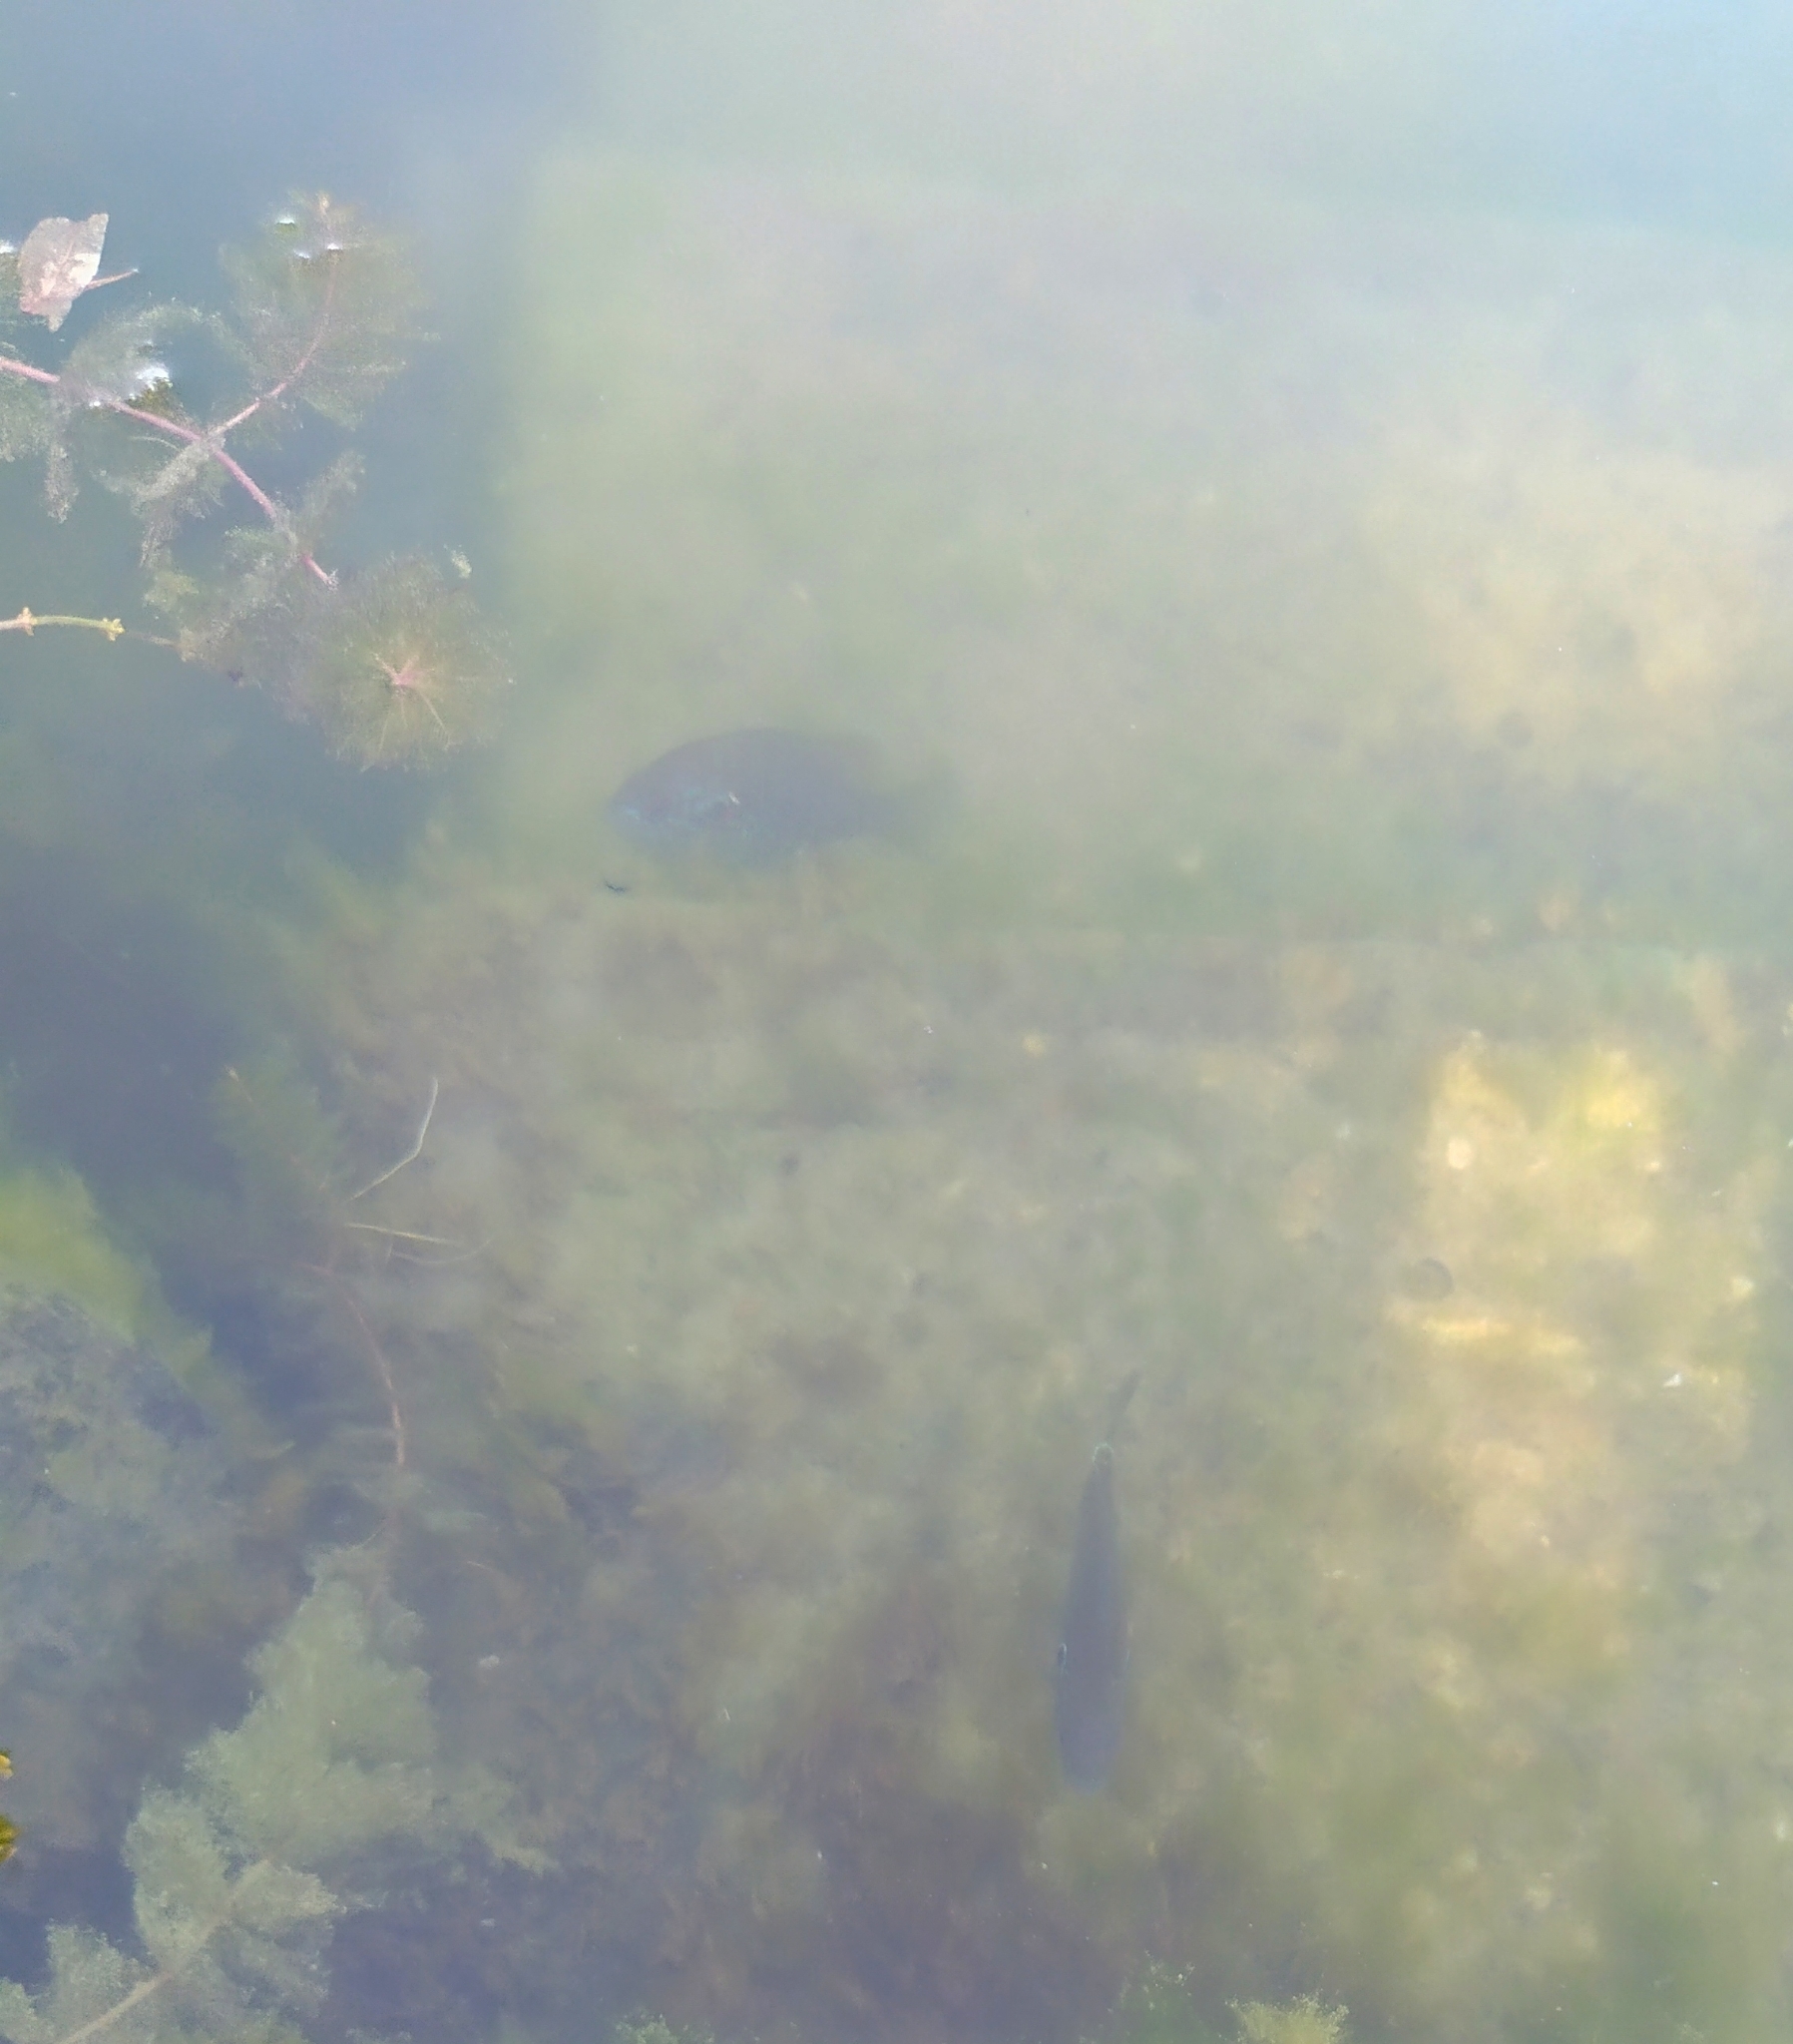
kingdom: Animalia
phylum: Chordata
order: Perciformes
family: Centrarchidae
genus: Lepomis
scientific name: Lepomis gibbosus
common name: Pumpkinseed
